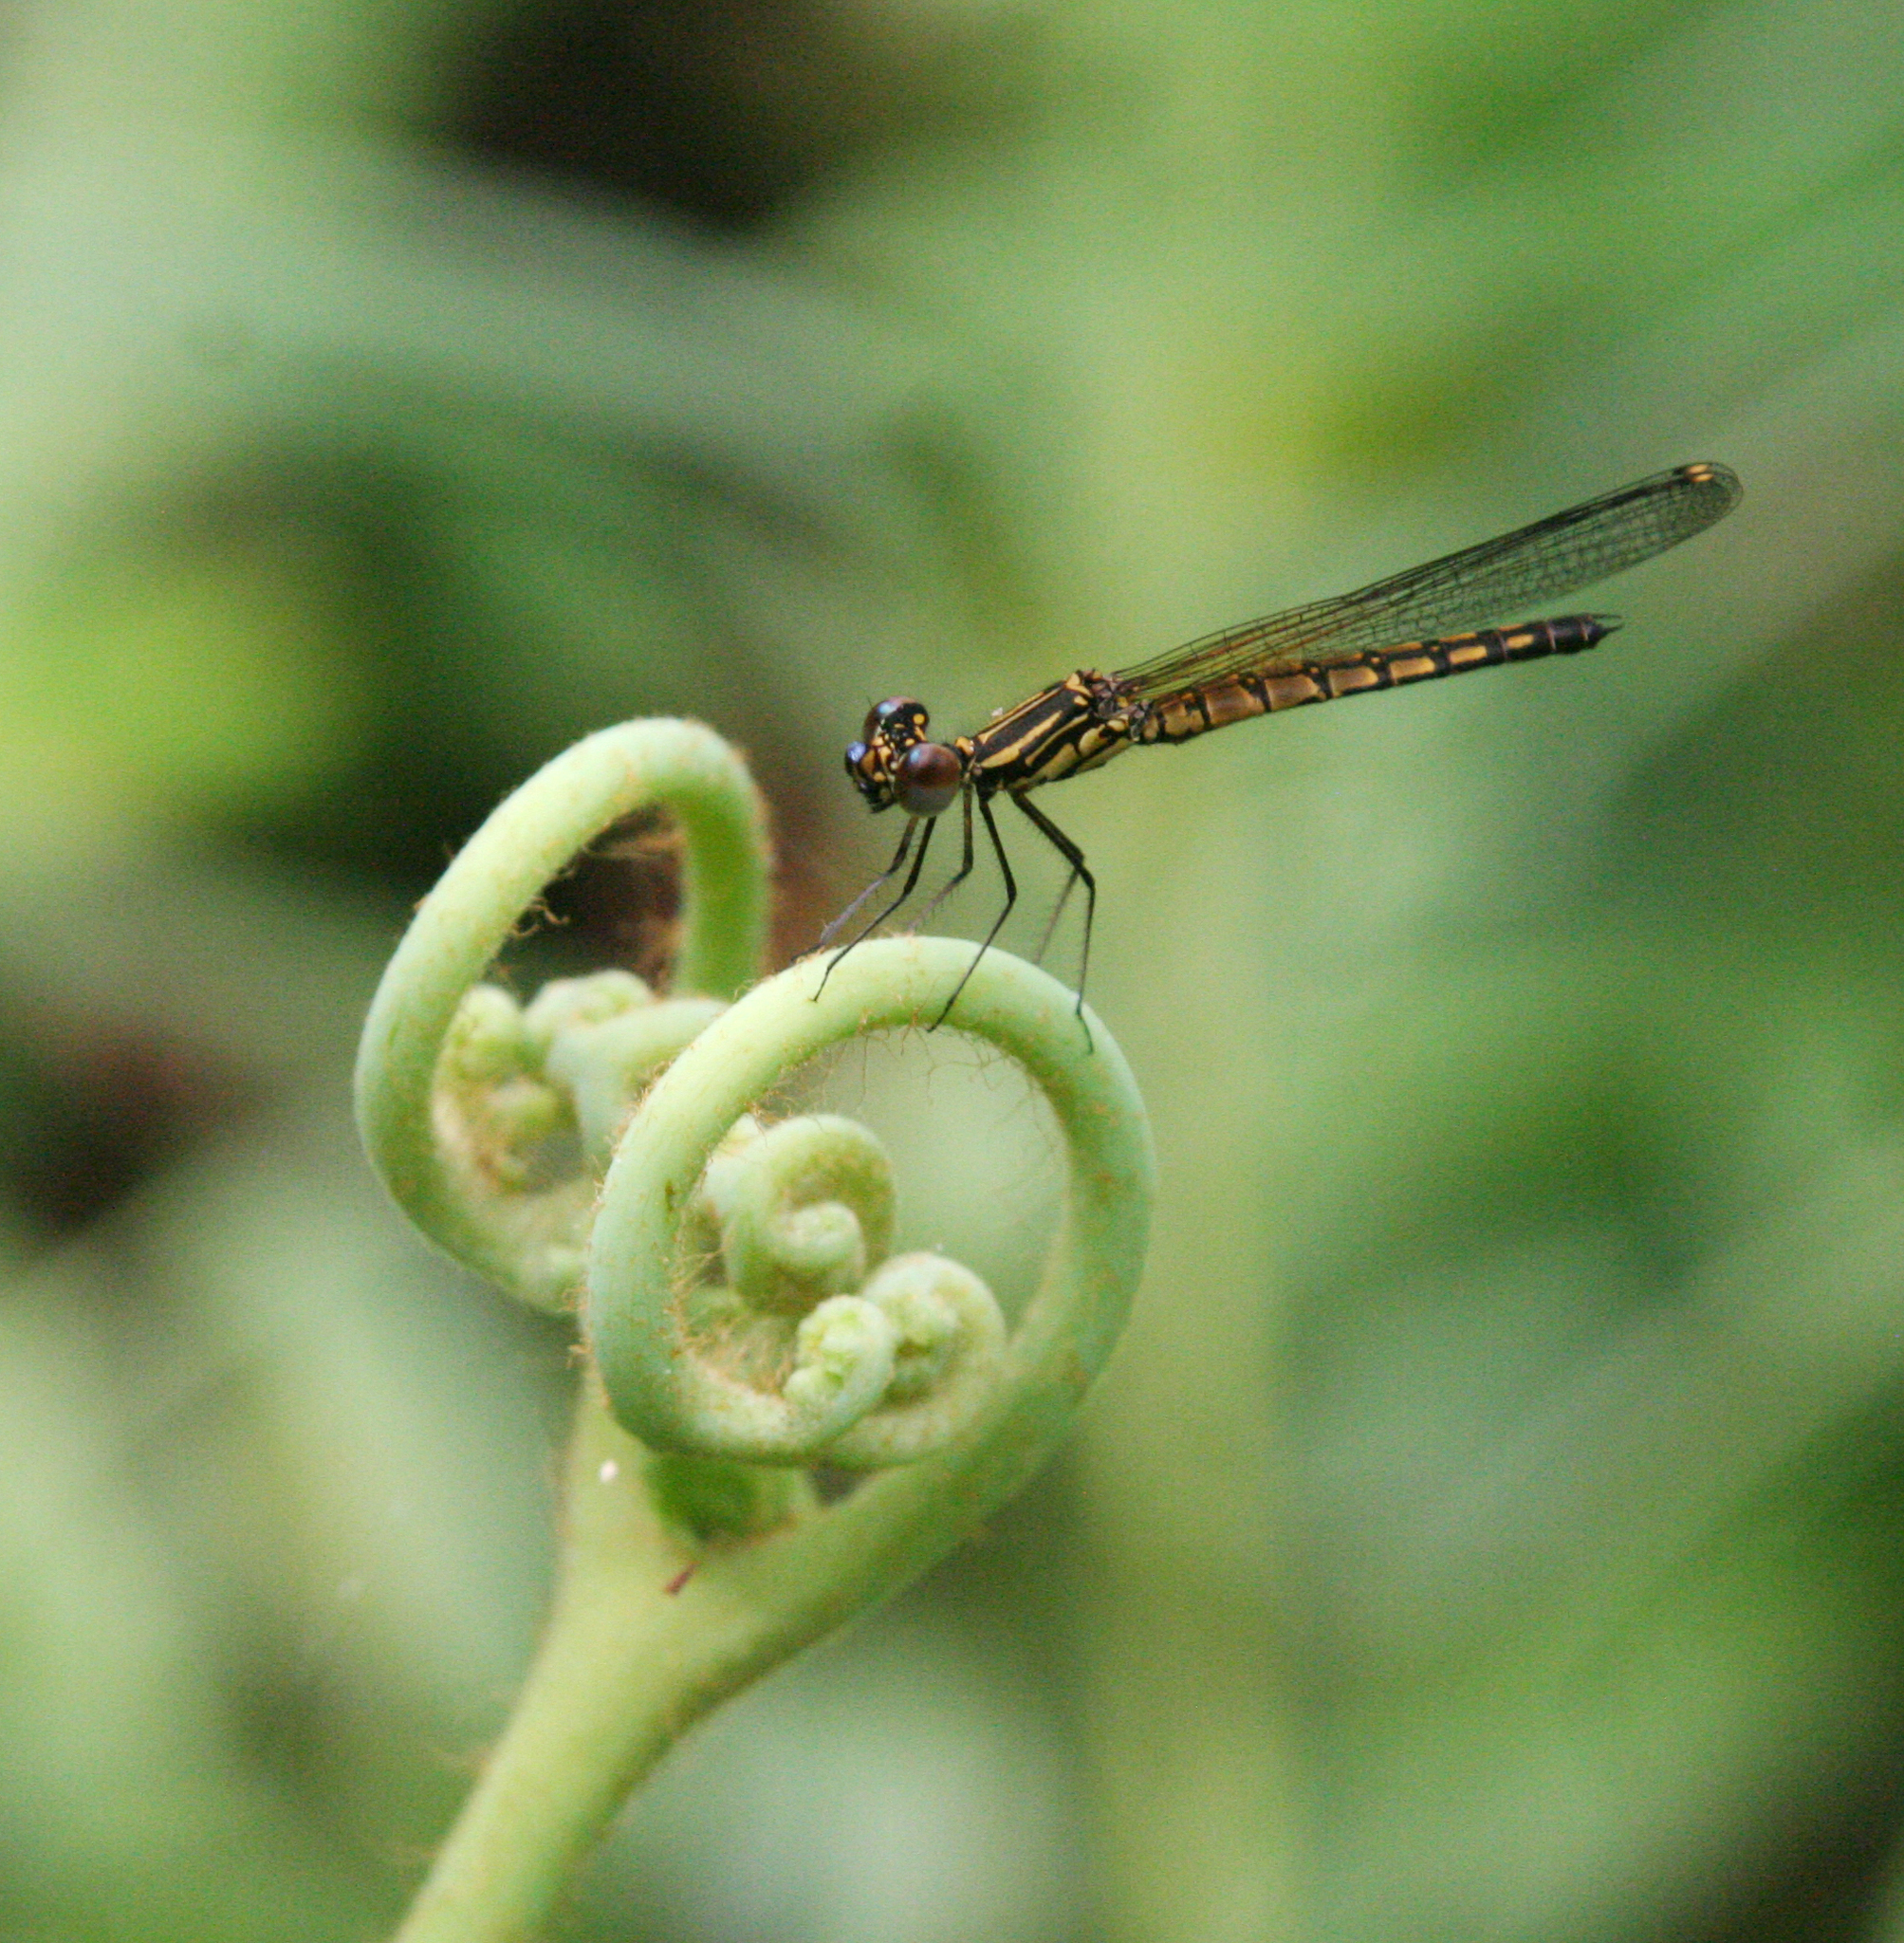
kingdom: Animalia
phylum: Arthropoda
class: Insecta
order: Odonata
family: Chlorocyphidae
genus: Libellago
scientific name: Libellago lineata
